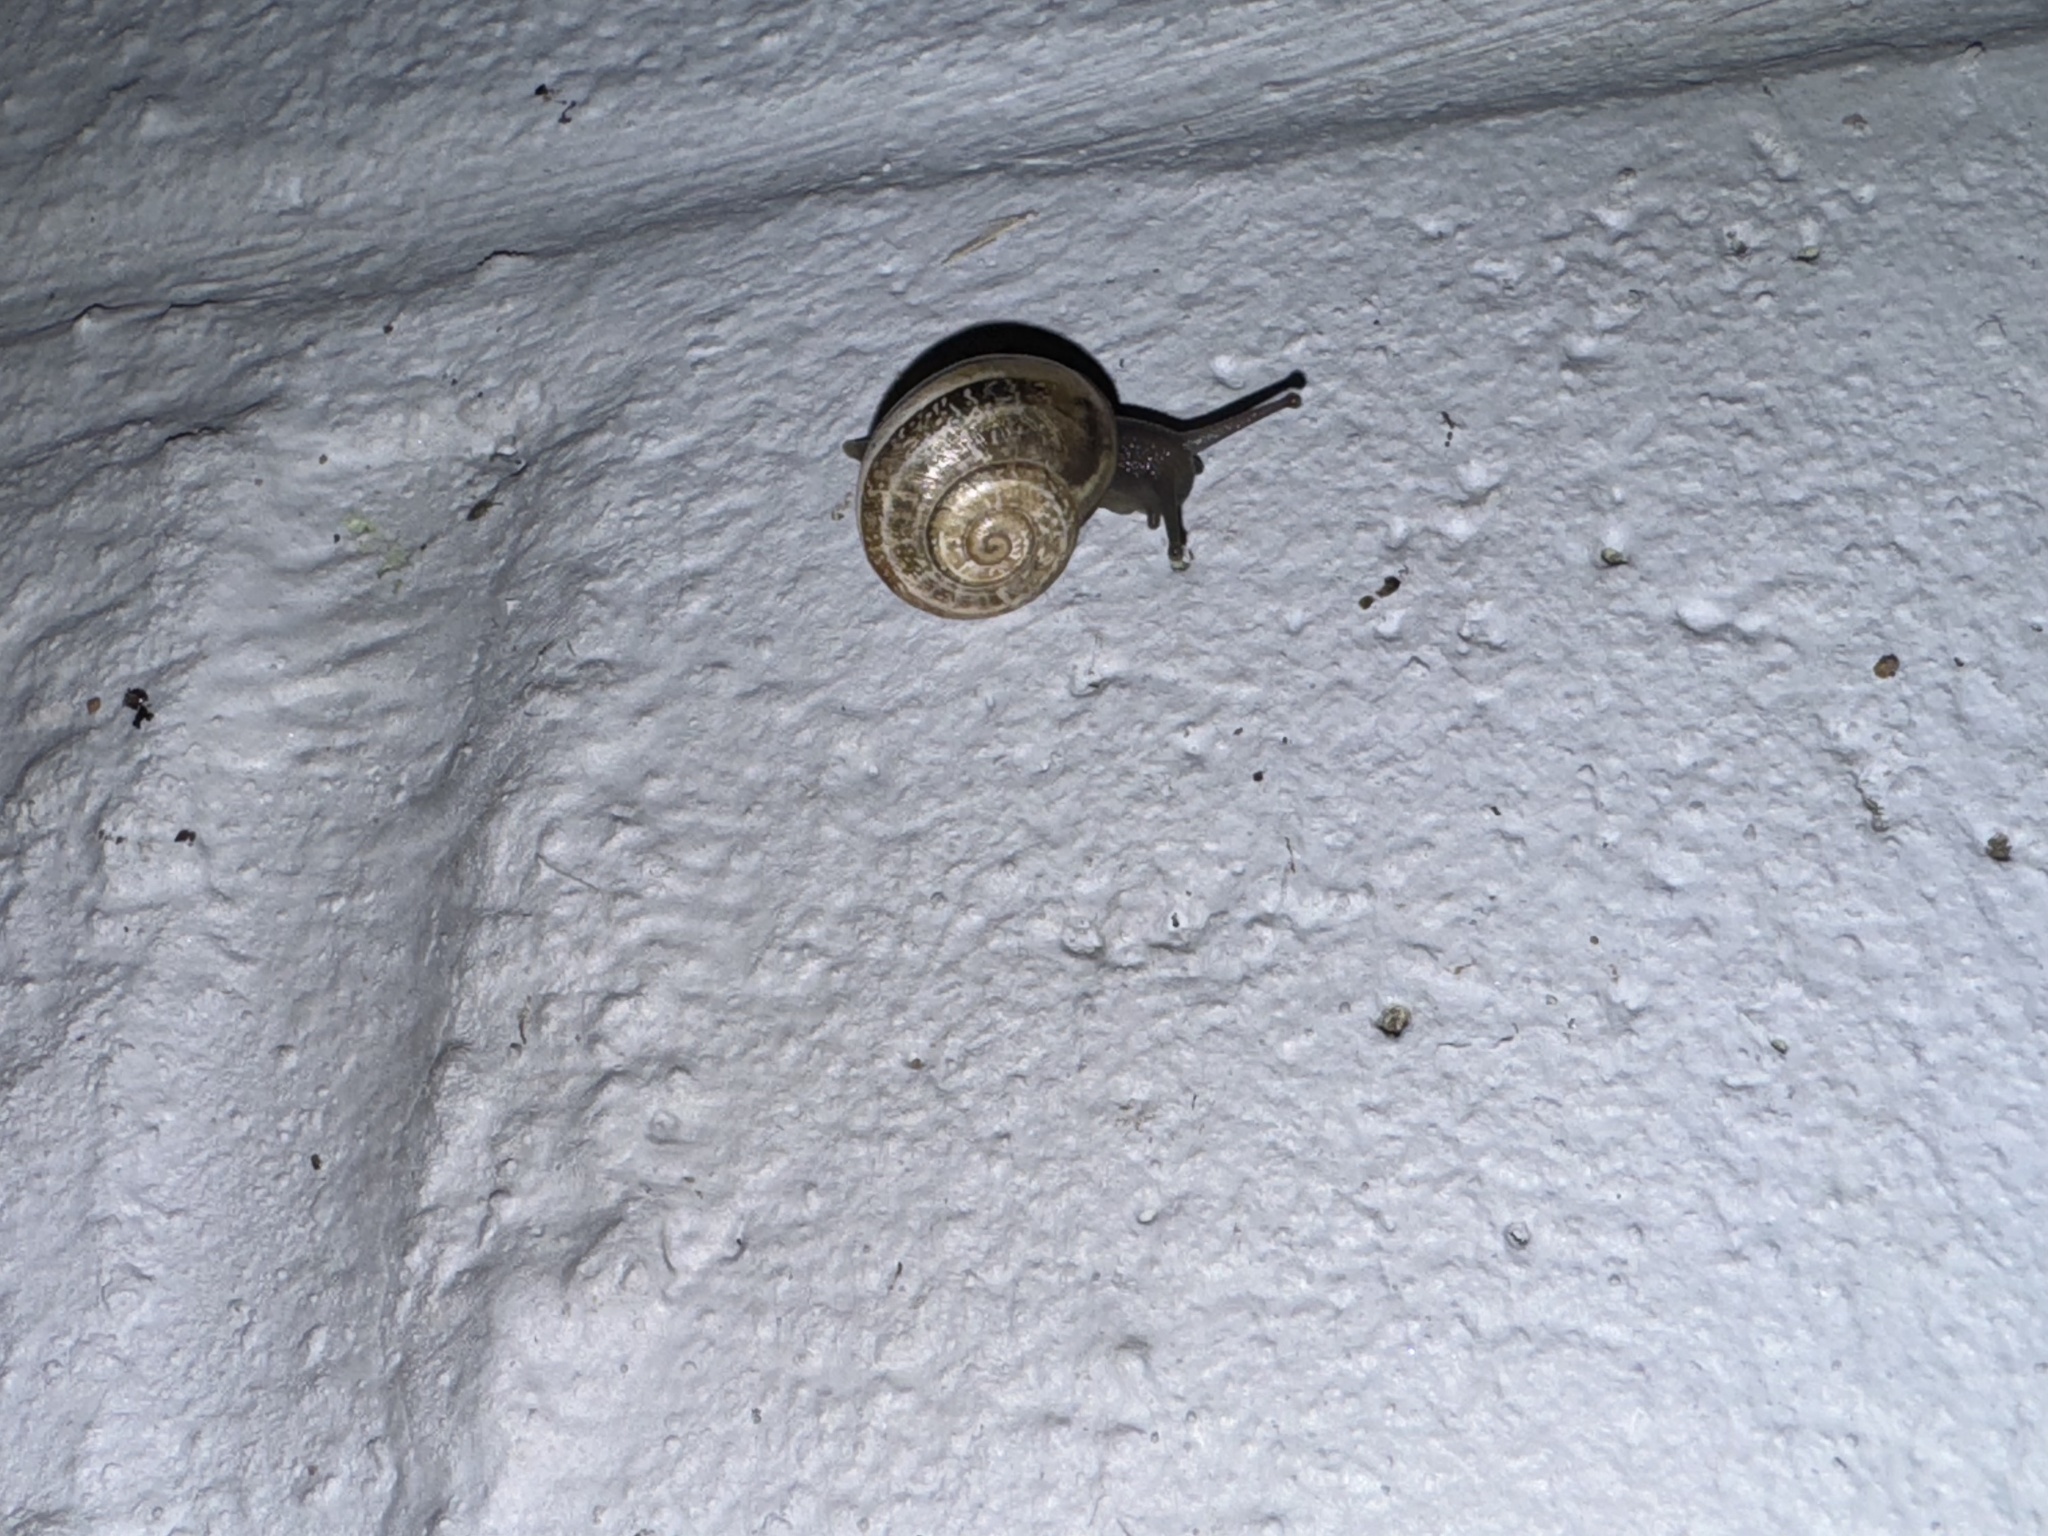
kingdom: Animalia
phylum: Mollusca
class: Gastropoda
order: Stylommatophora
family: Helicidae
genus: Otala
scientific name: Otala lactea
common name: Milk snail
